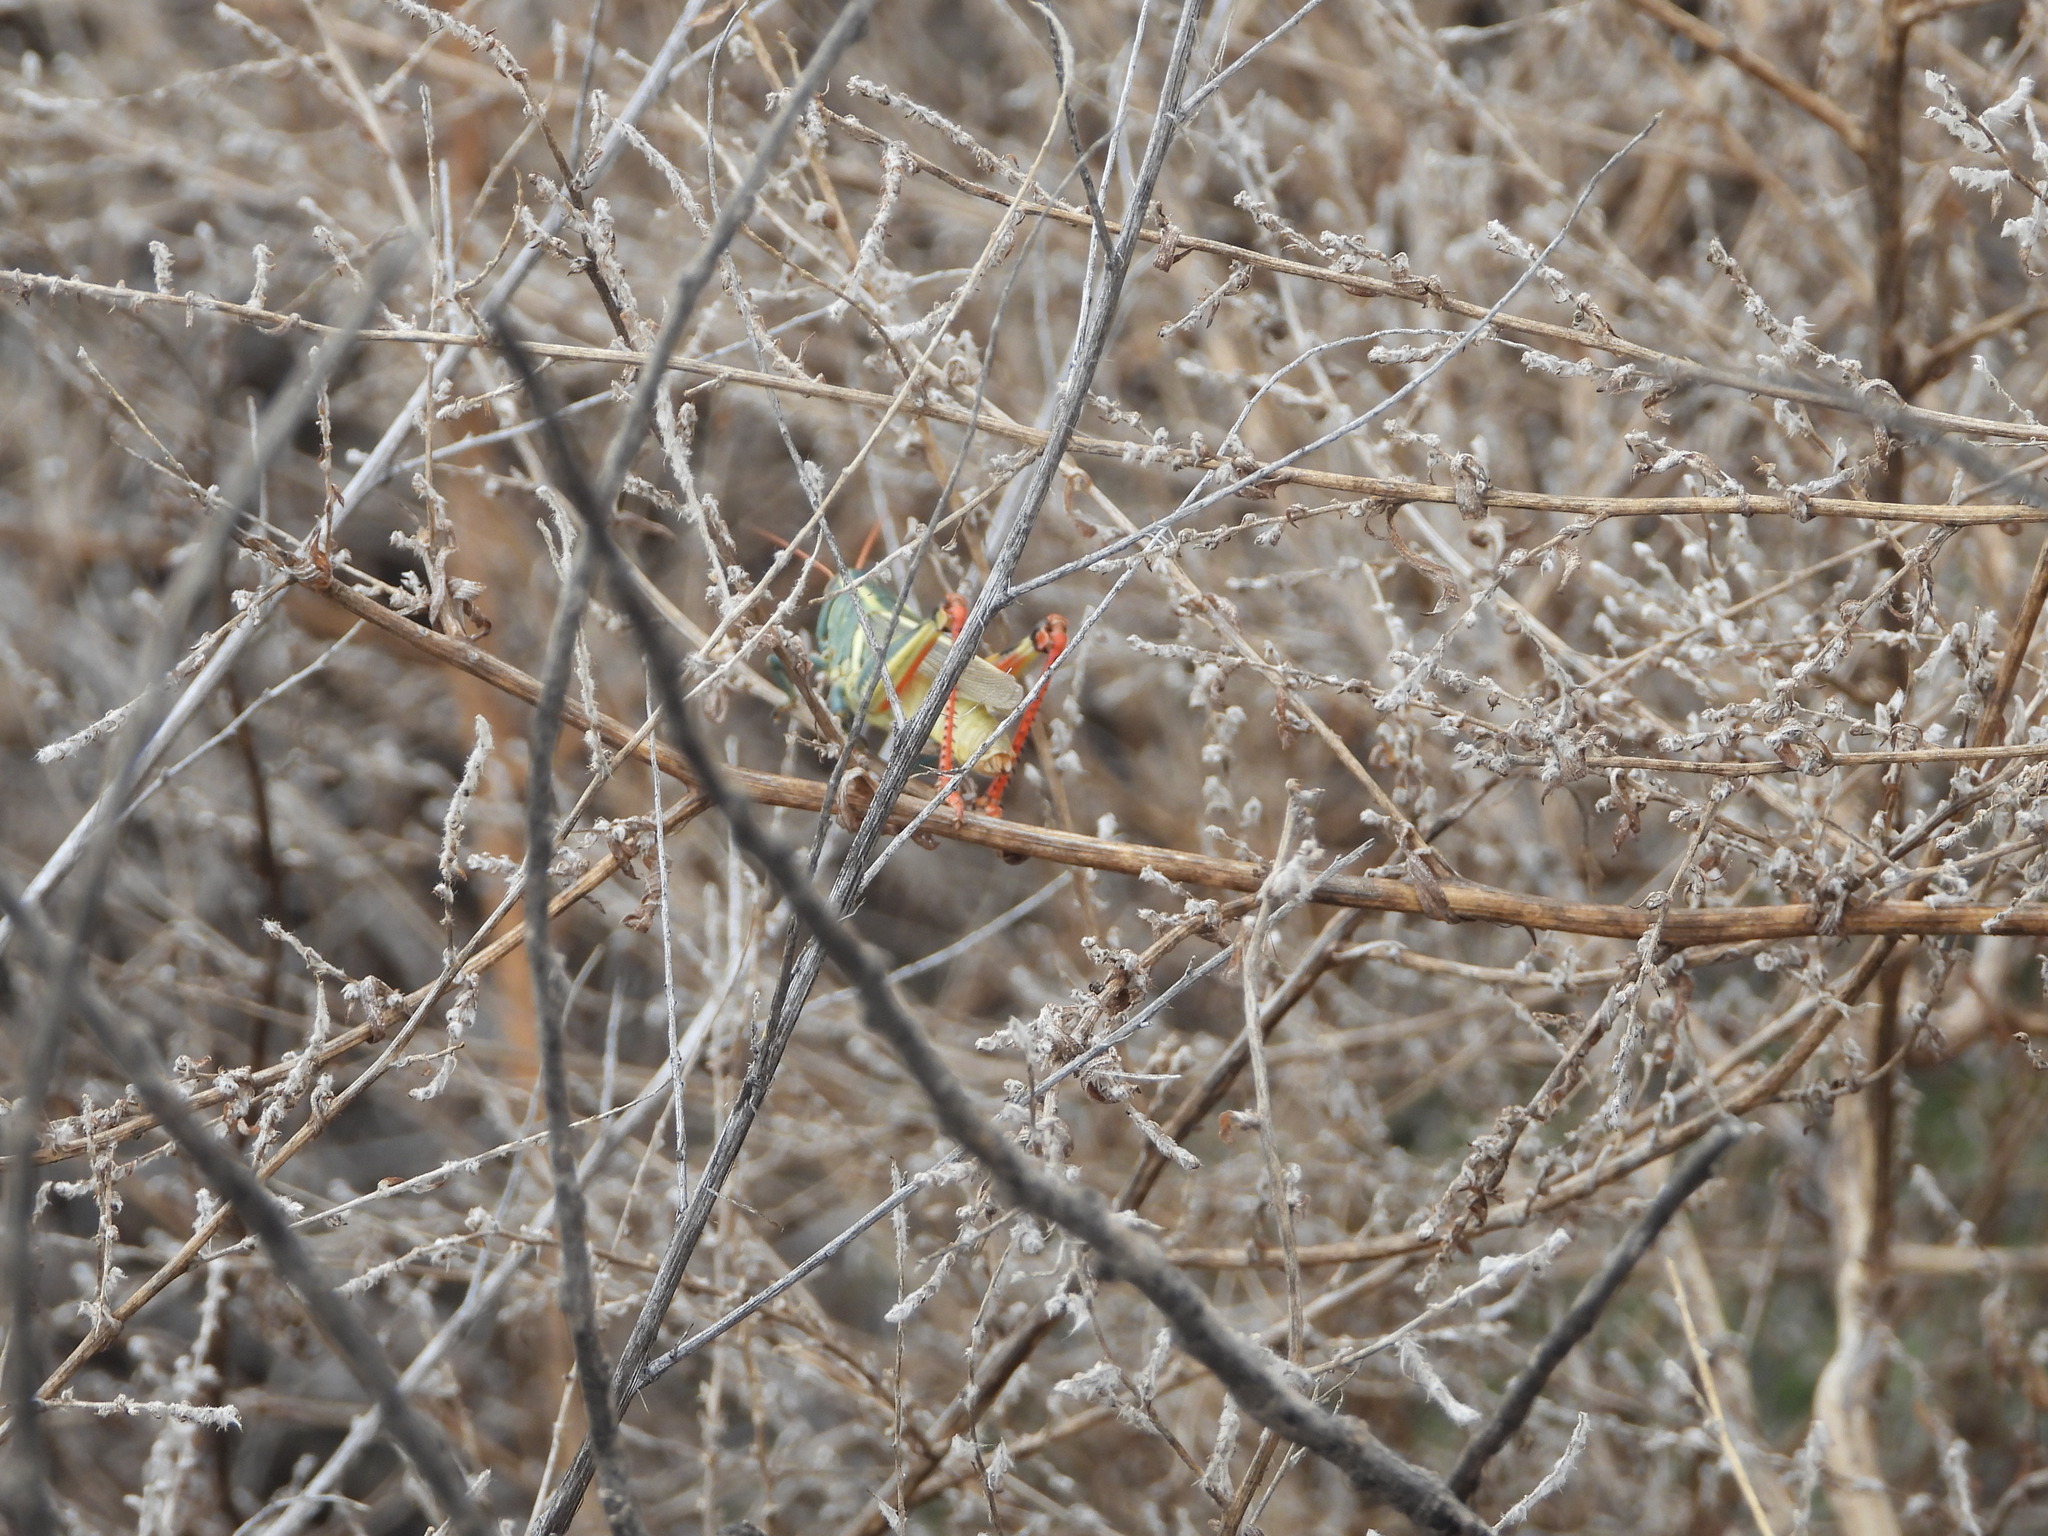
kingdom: Animalia
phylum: Arthropoda
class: Insecta
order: Orthoptera
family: Acrididae
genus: Melanoplus
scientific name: Melanoplus thomasi
